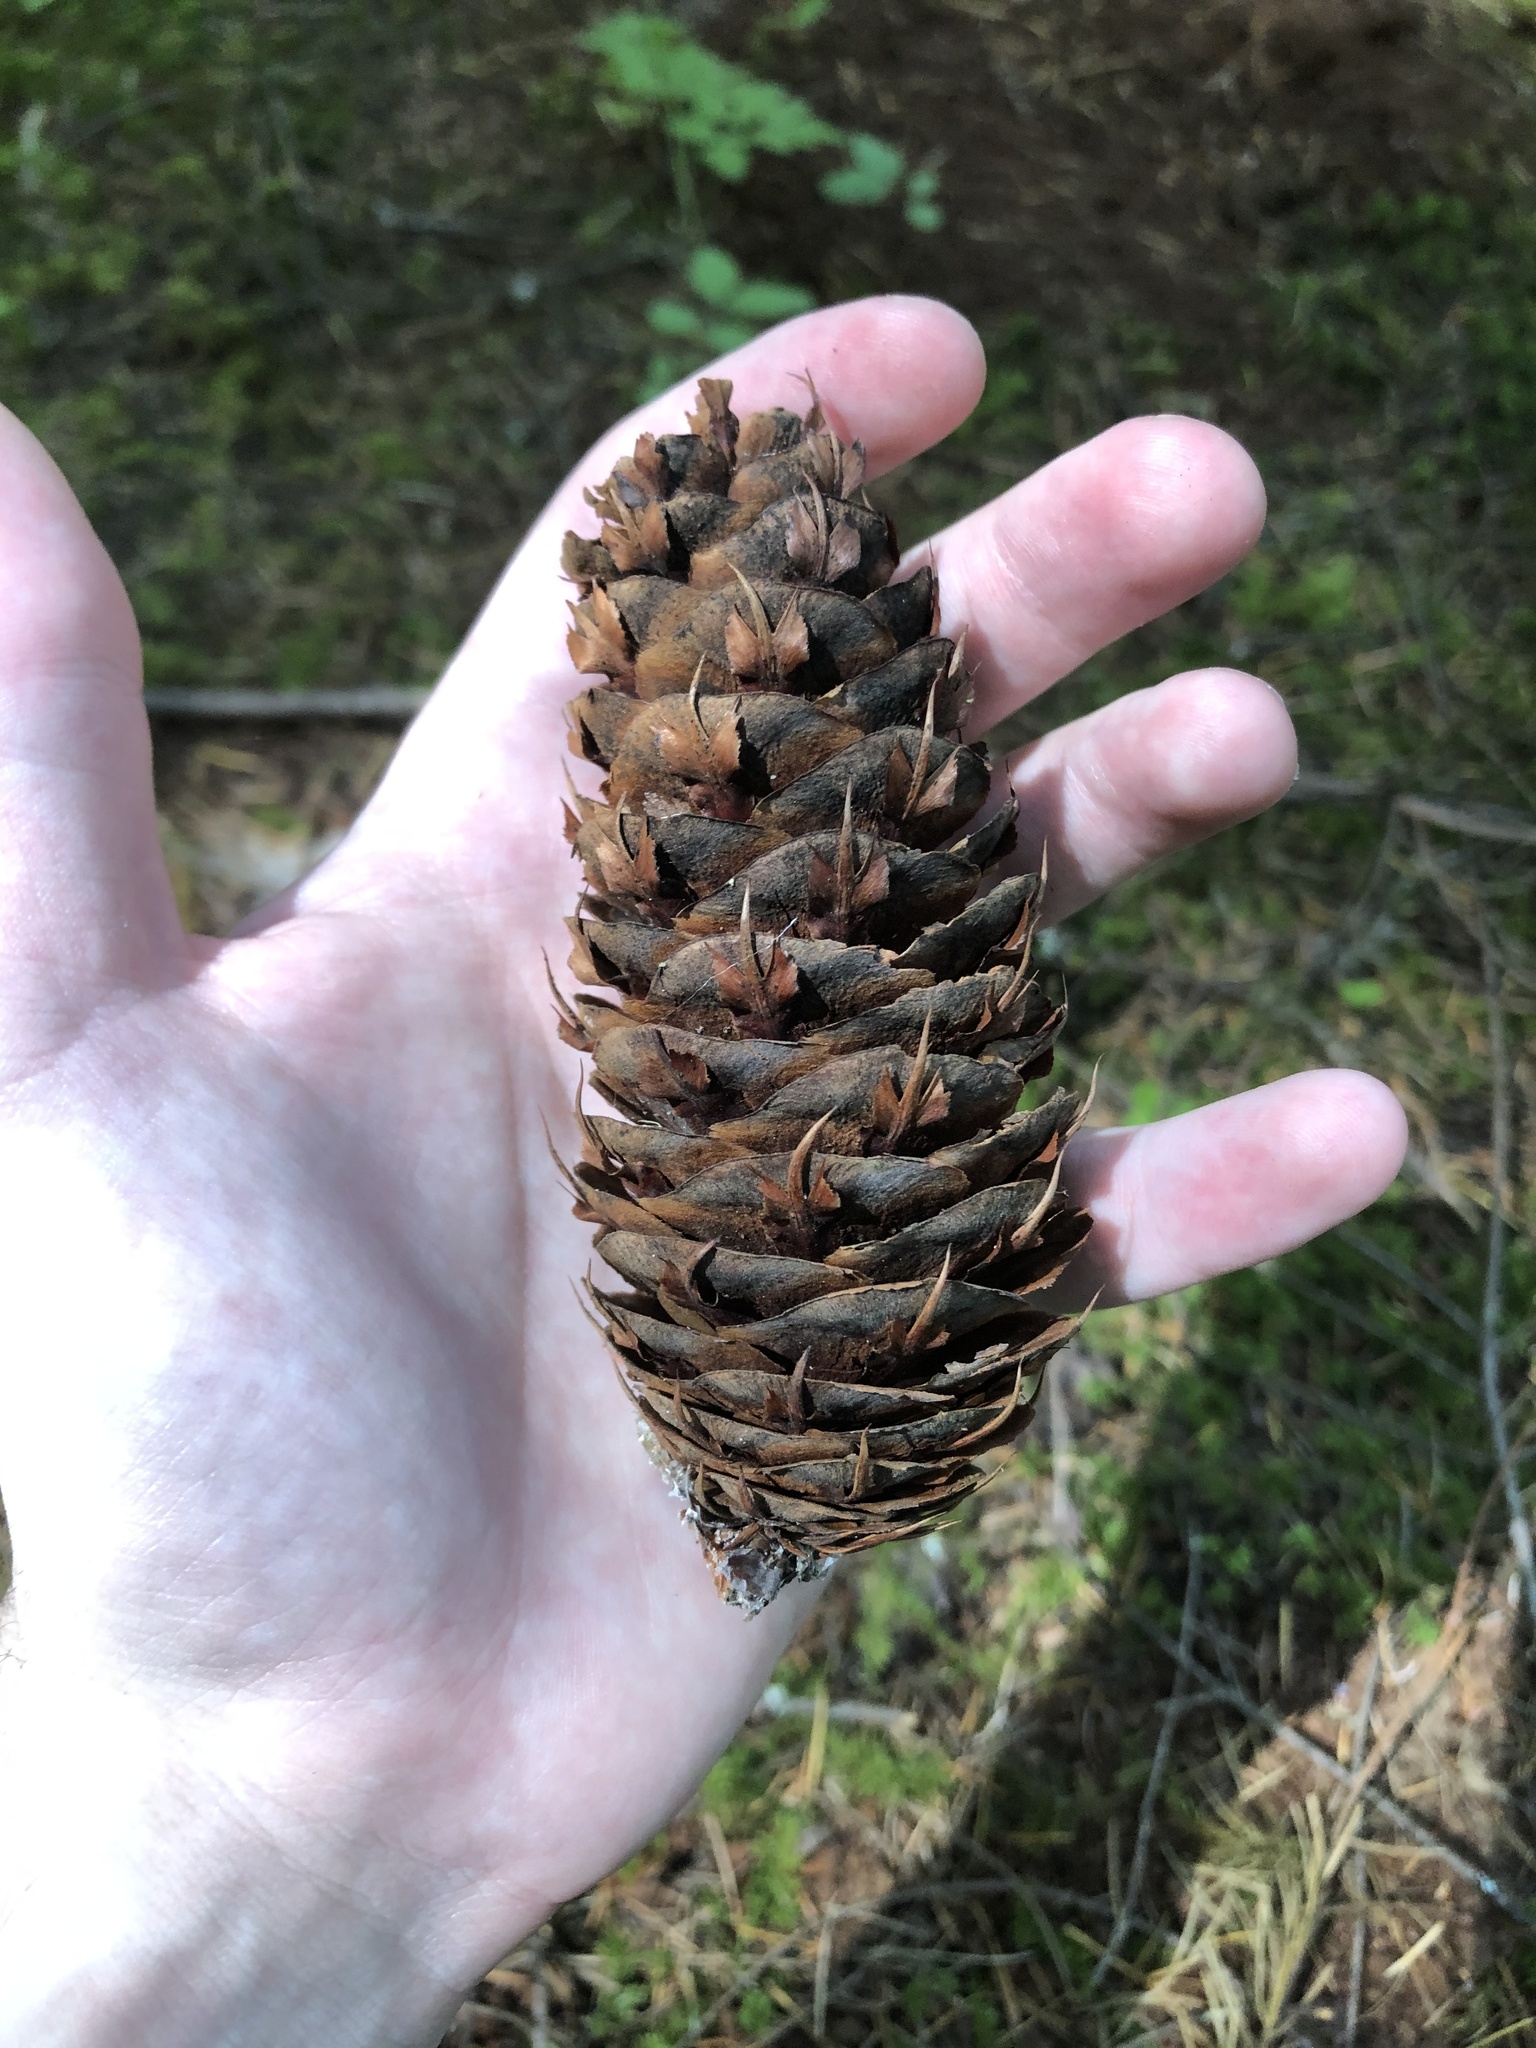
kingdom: Plantae
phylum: Tracheophyta
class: Pinopsida
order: Pinales
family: Pinaceae
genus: Pseudotsuga
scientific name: Pseudotsuga menziesii
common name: Douglas fir
